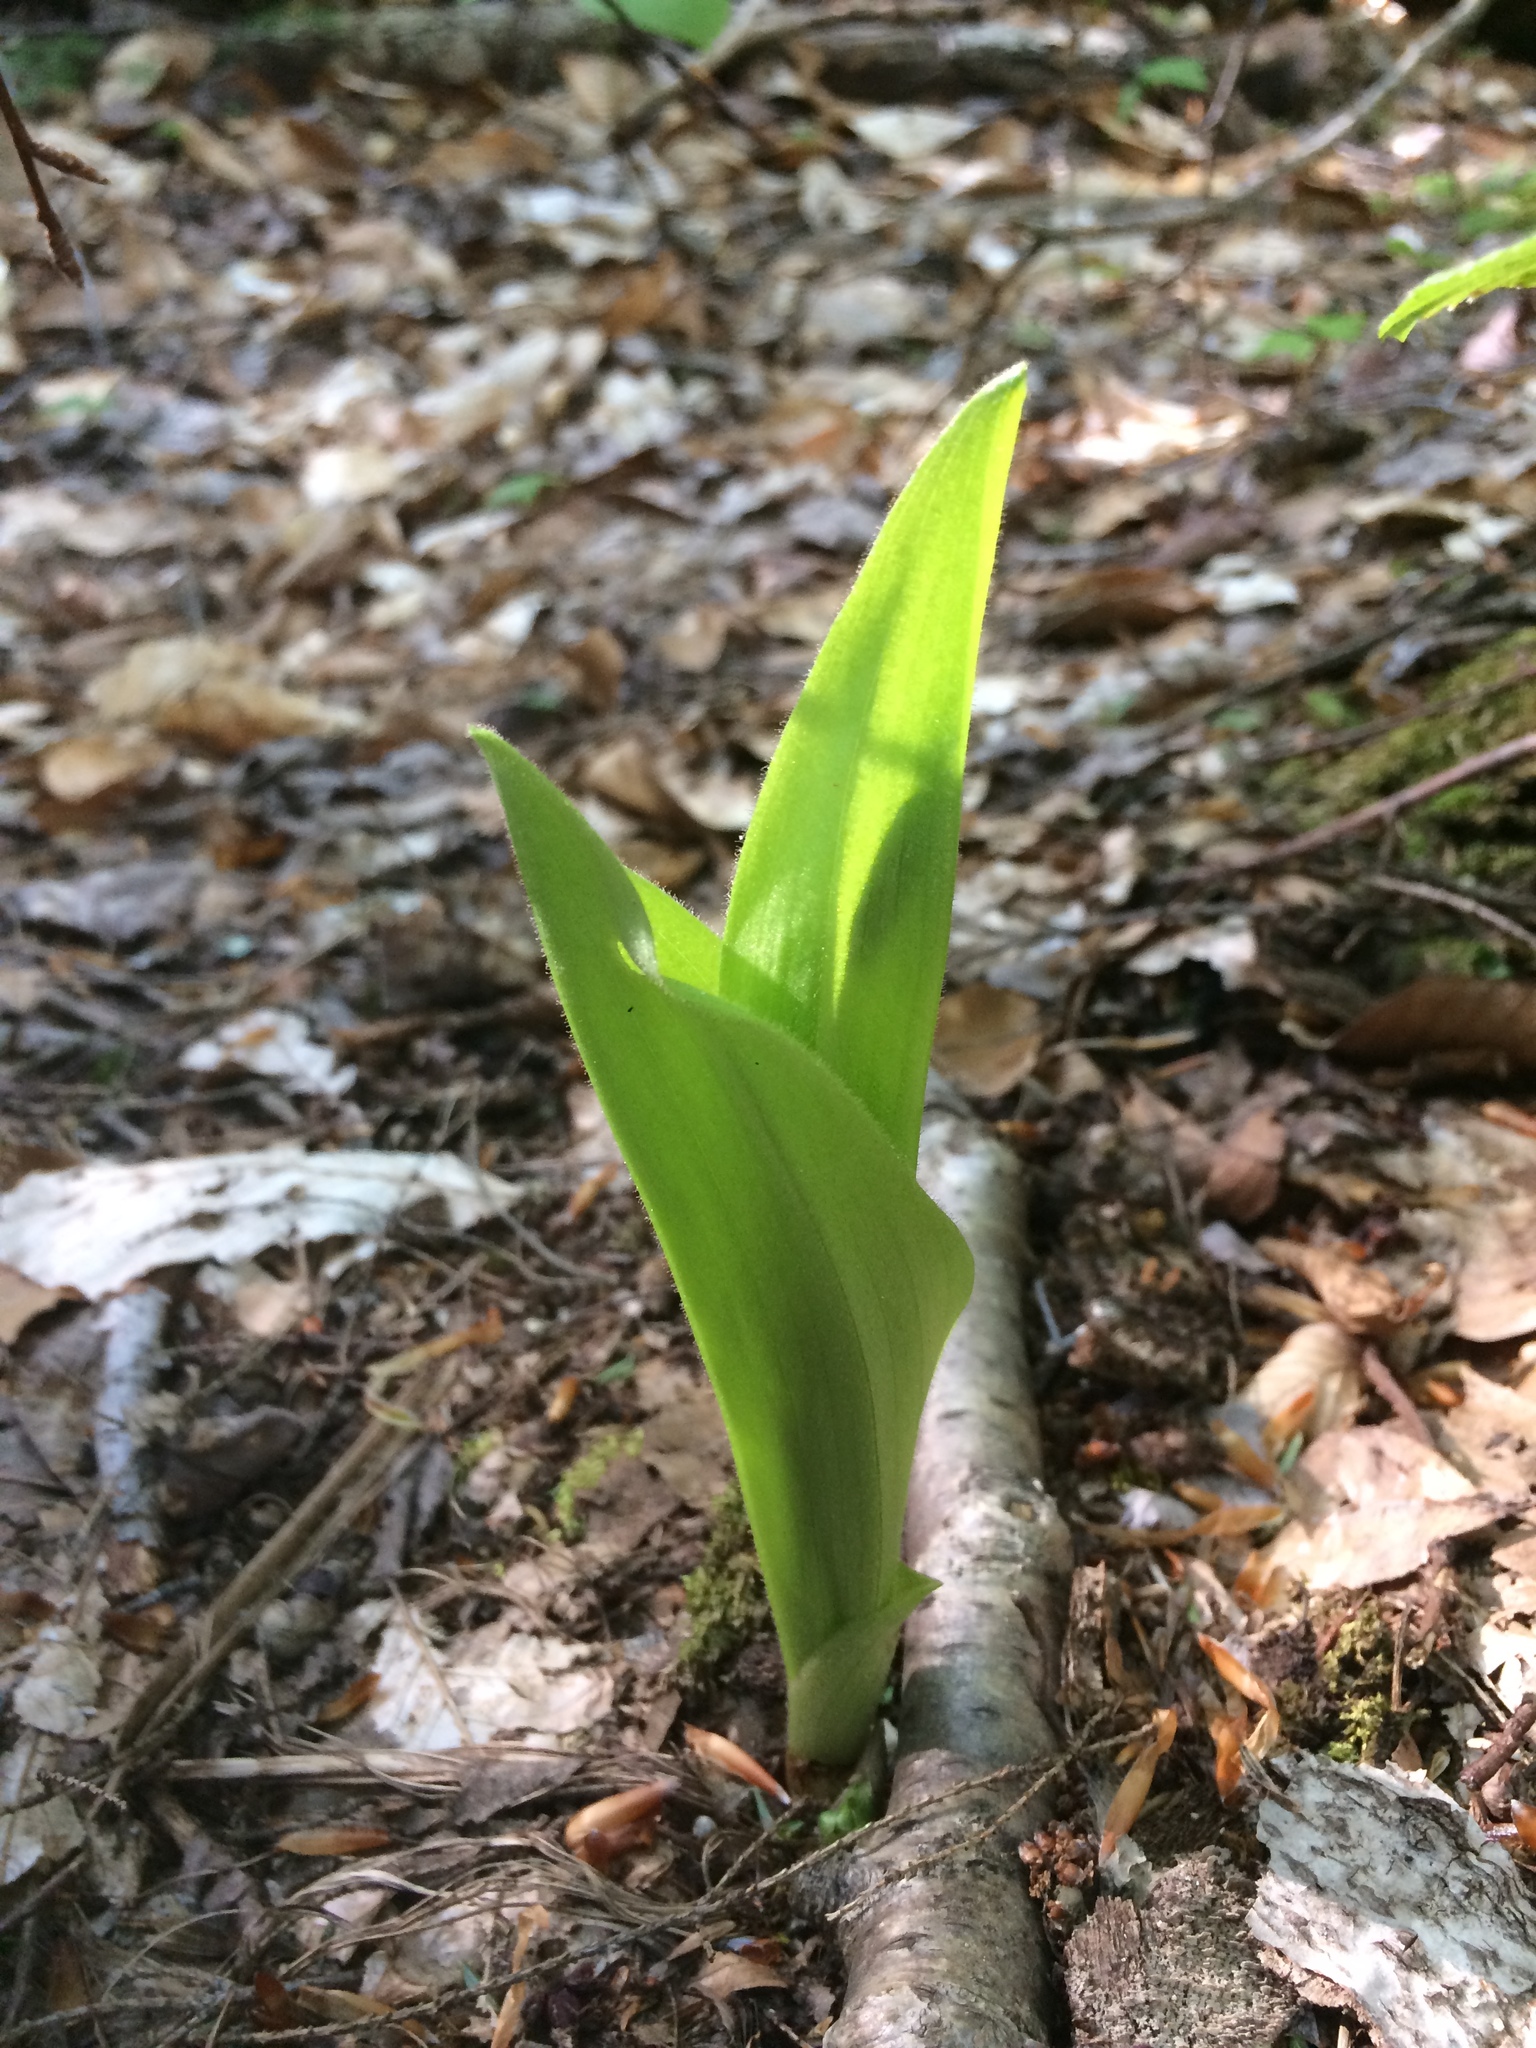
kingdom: Plantae
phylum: Tracheophyta
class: Liliopsida
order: Liliales
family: Melanthiaceae
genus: Veratrum
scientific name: Veratrum viride
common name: American false hellebore
